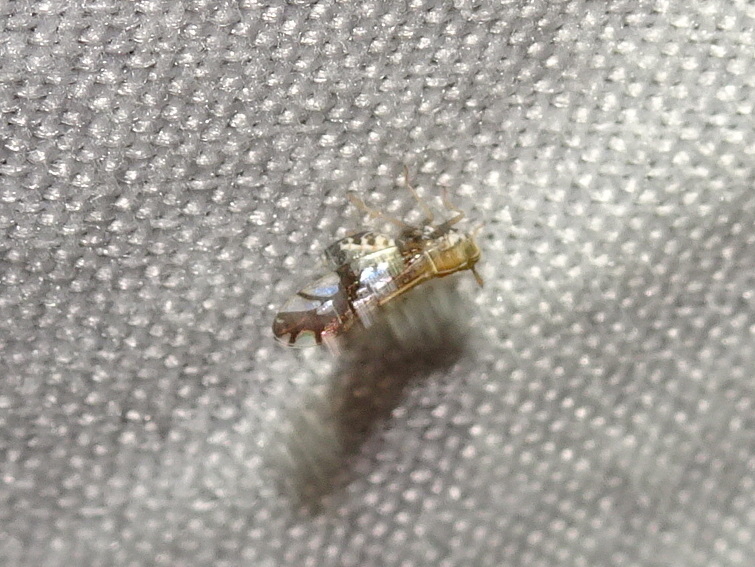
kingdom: Animalia
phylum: Arthropoda
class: Insecta
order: Hemiptera
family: Delphacidae
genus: Liburniella
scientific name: Liburniella ornata
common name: Ornate planthopper
